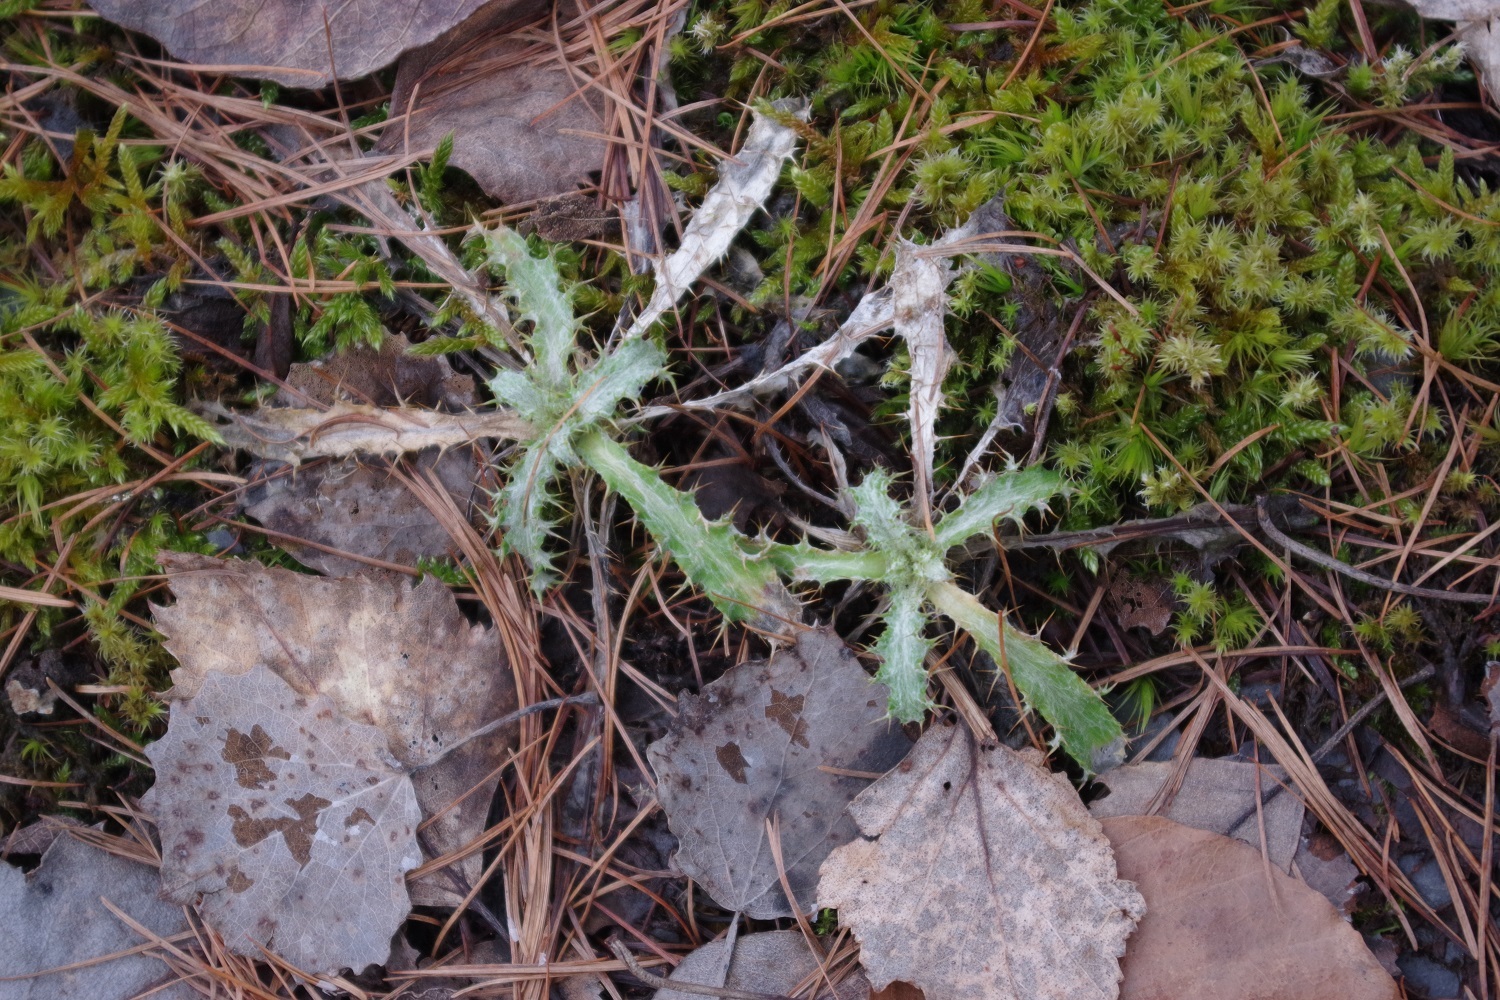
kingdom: Plantae
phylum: Tracheophyta
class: Magnoliopsida
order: Asterales
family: Asteraceae
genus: Carlina
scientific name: Carlina vulgaris
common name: Carline thistle
